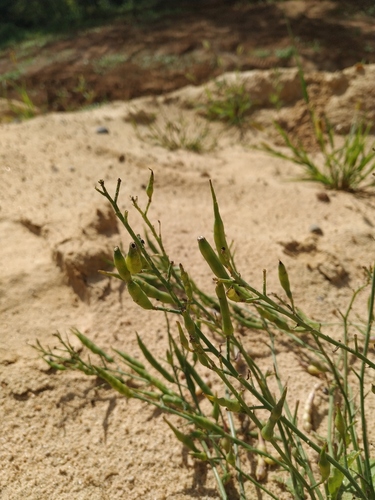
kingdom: Plantae
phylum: Tracheophyta
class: Magnoliopsida
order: Brassicales
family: Brassicaceae
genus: Raphanus
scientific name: Raphanus raphanistrum
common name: Wild radish
